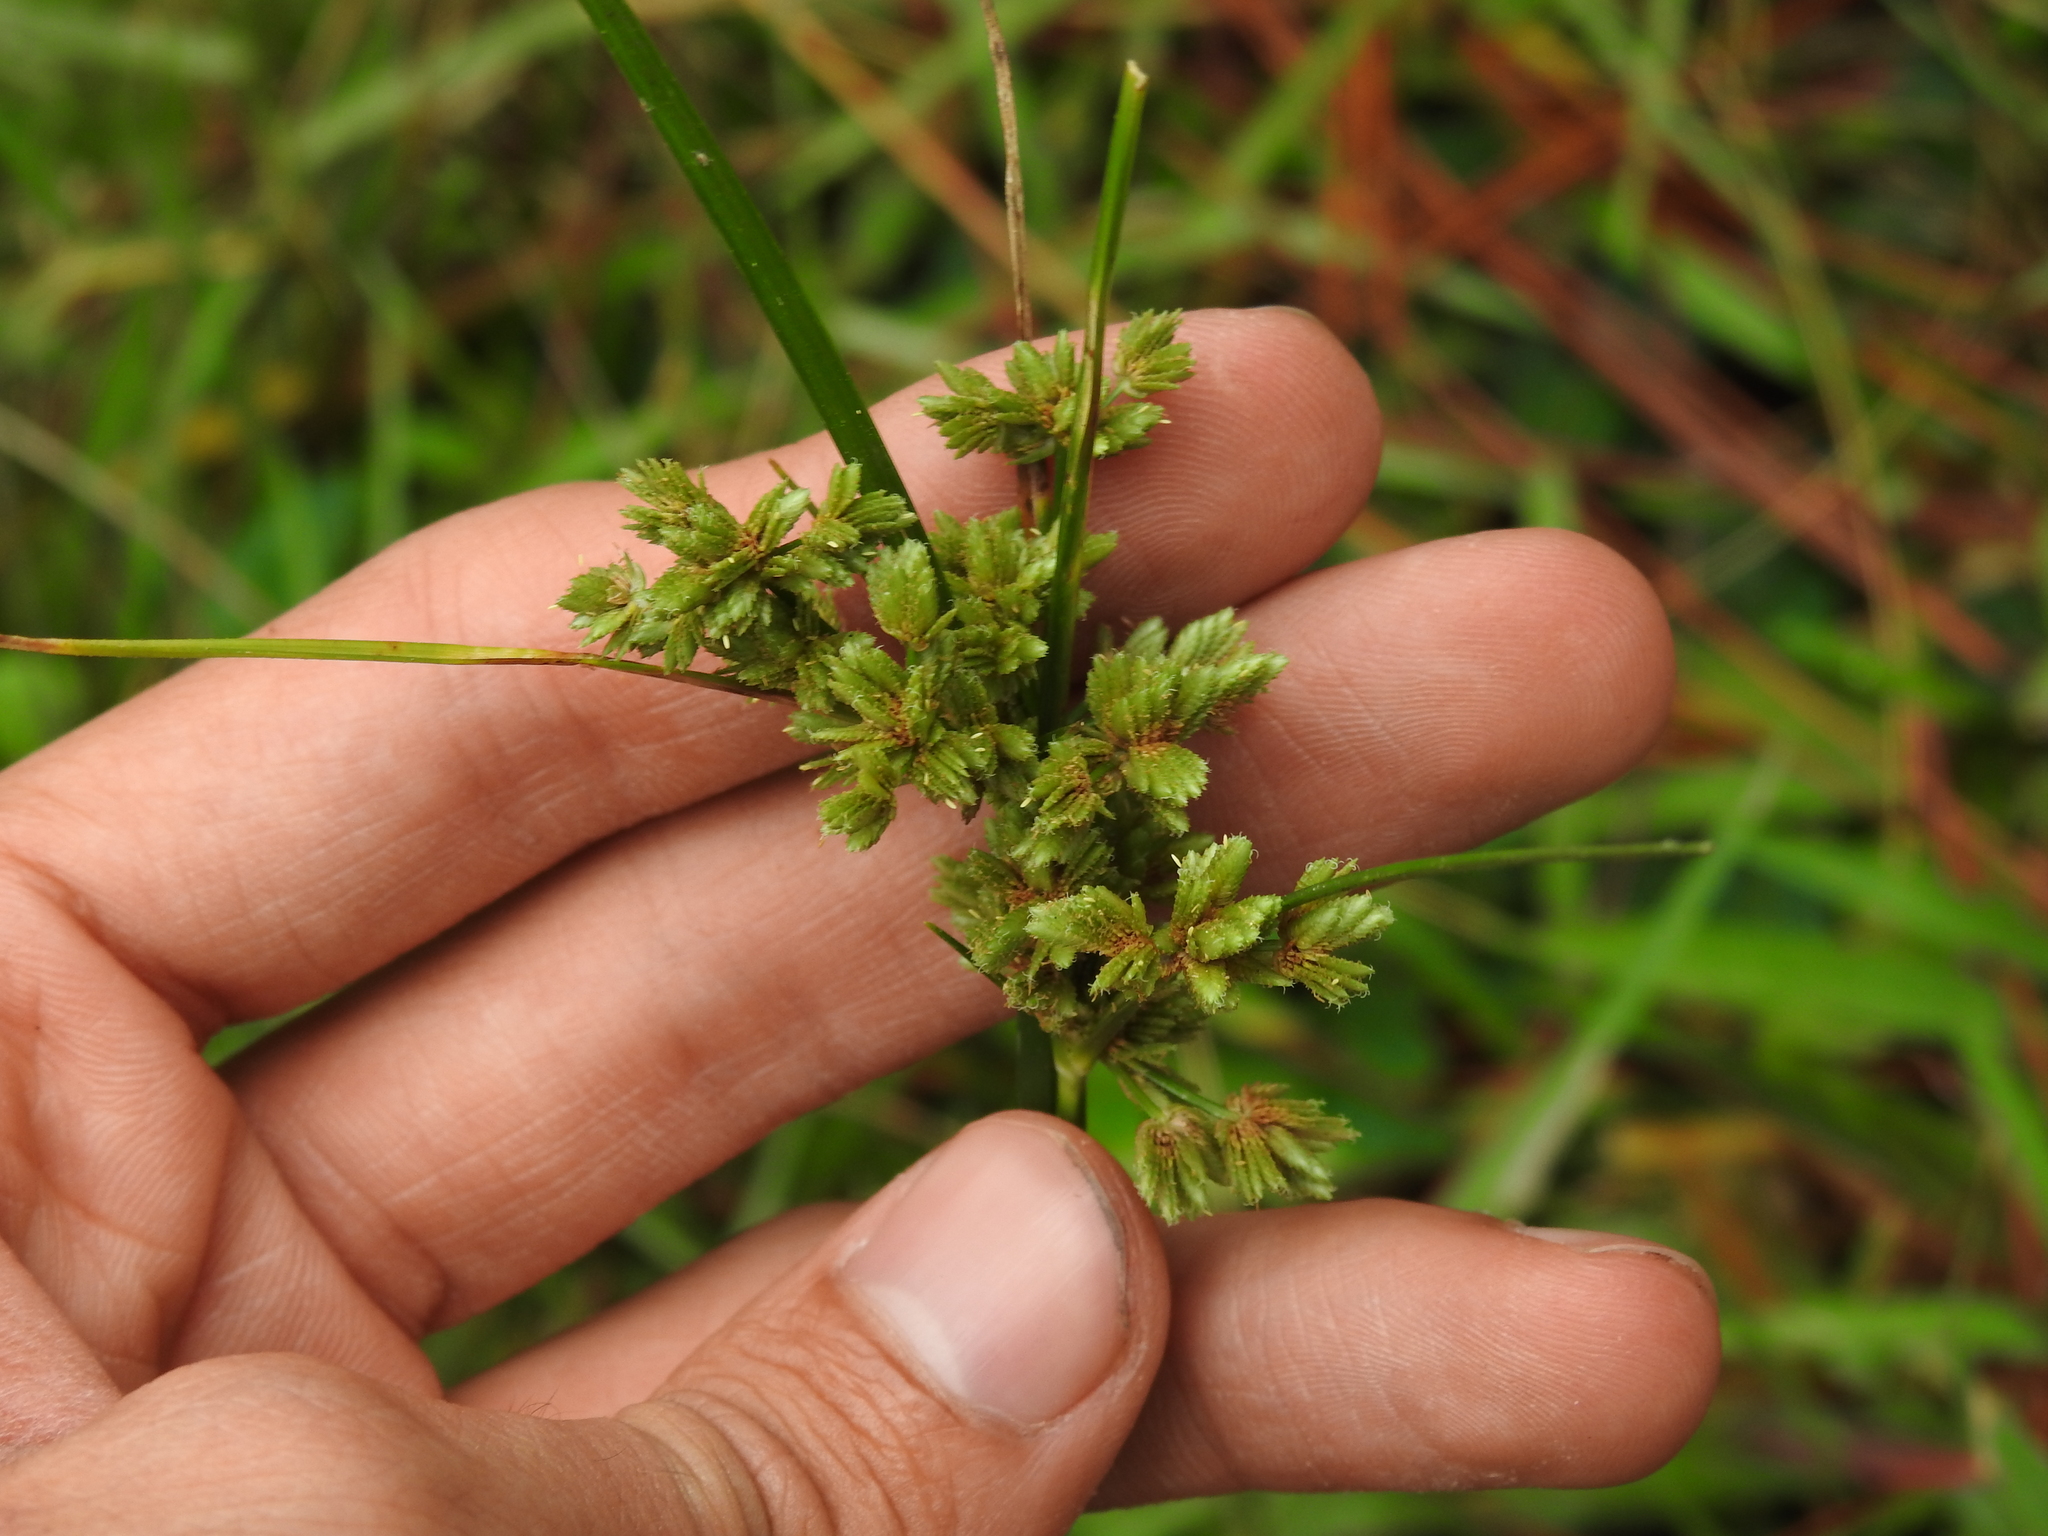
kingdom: Plantae
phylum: Tracheophyta
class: Liliopsida
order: Poales
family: Cyperaceae
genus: Cyperus
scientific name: Cyperus surinamensis
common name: Tropical flat sedge
